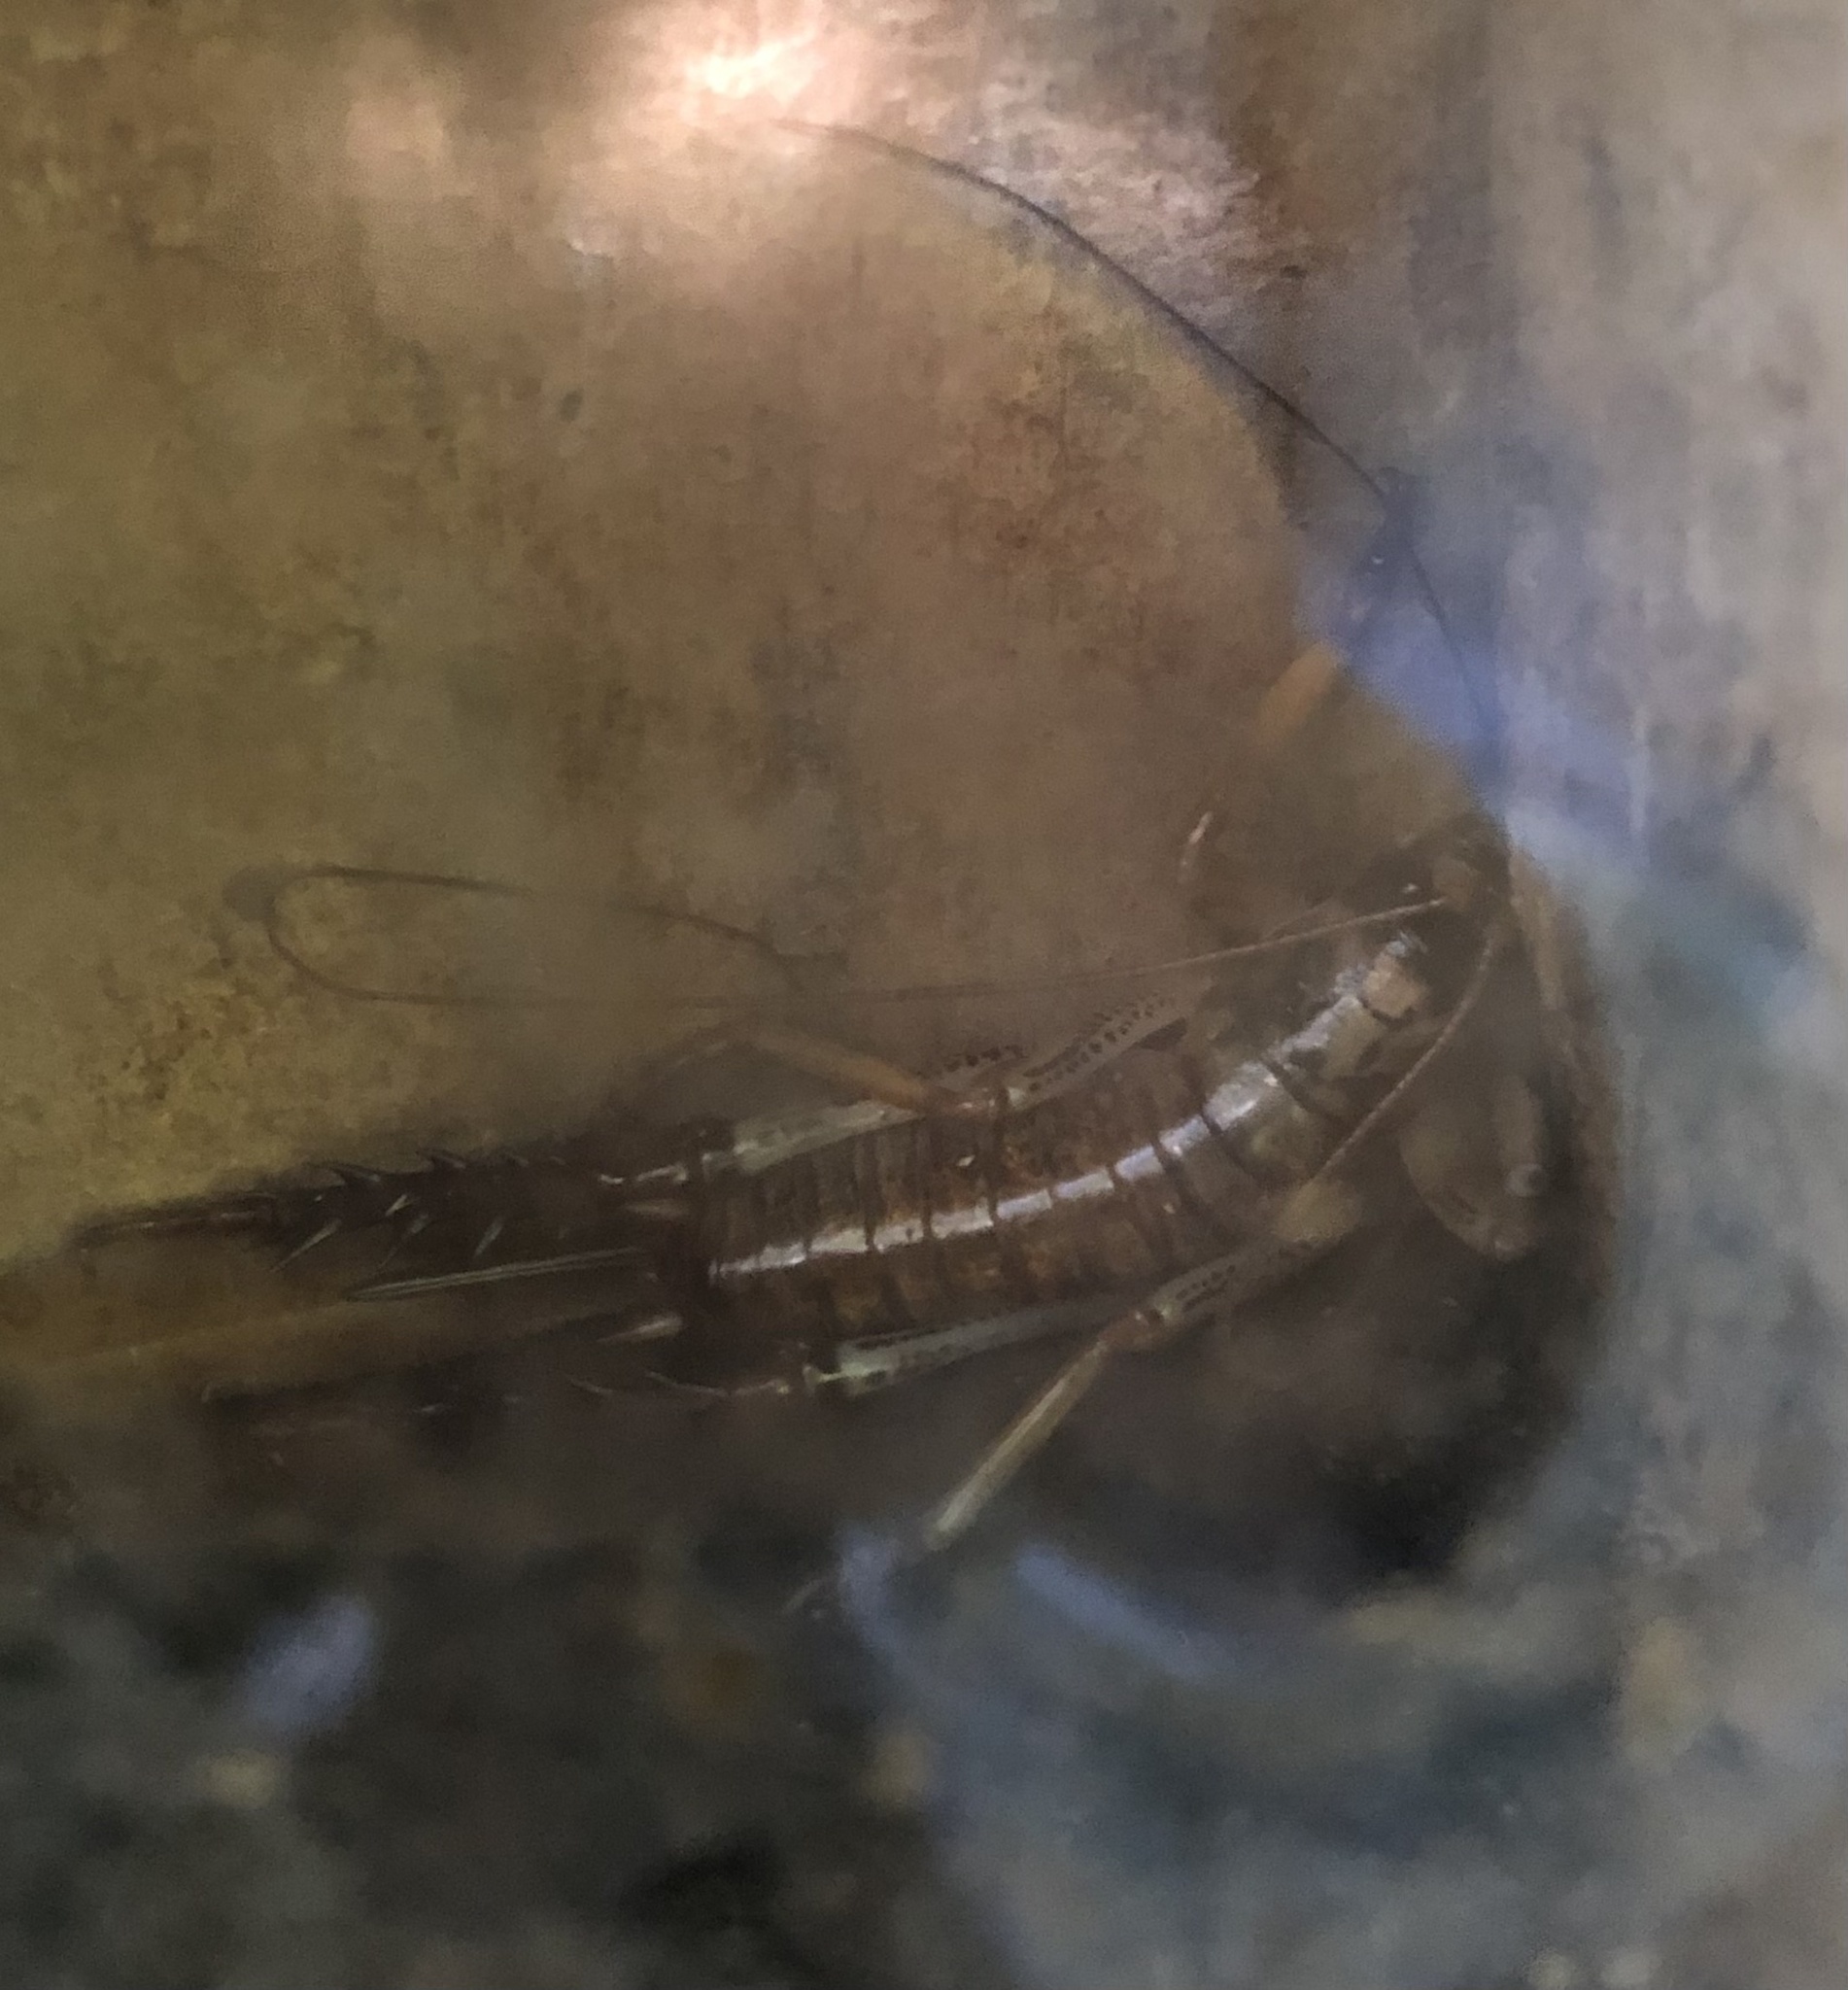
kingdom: Animalia
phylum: Arthropoda
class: Insecta
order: Orthoptera
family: Anostostomatidae
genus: Hemideina
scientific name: Hemideina thoracica
